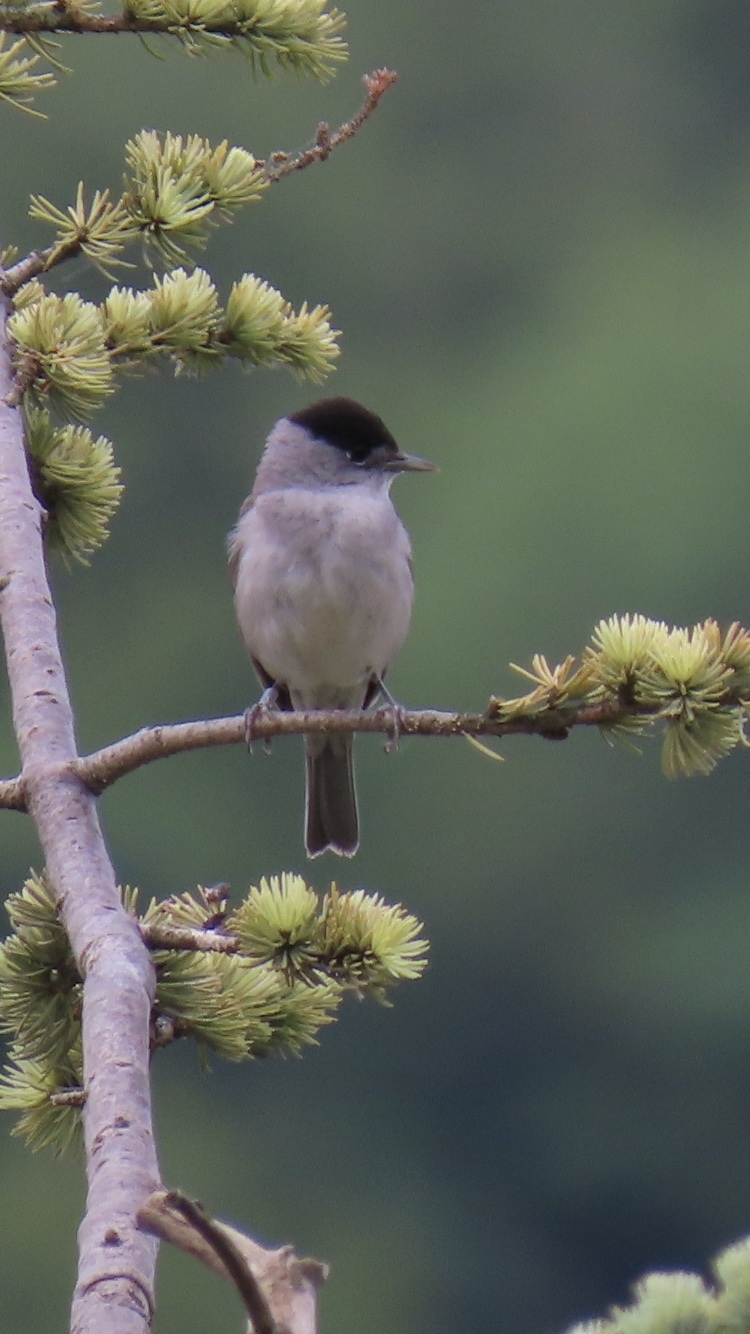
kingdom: Animalia
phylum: Chordata
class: Aves
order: Passeriformes
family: Sylviidae
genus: Sylvia
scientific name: Sylvia atricapilla
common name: Eurasian blackcap
